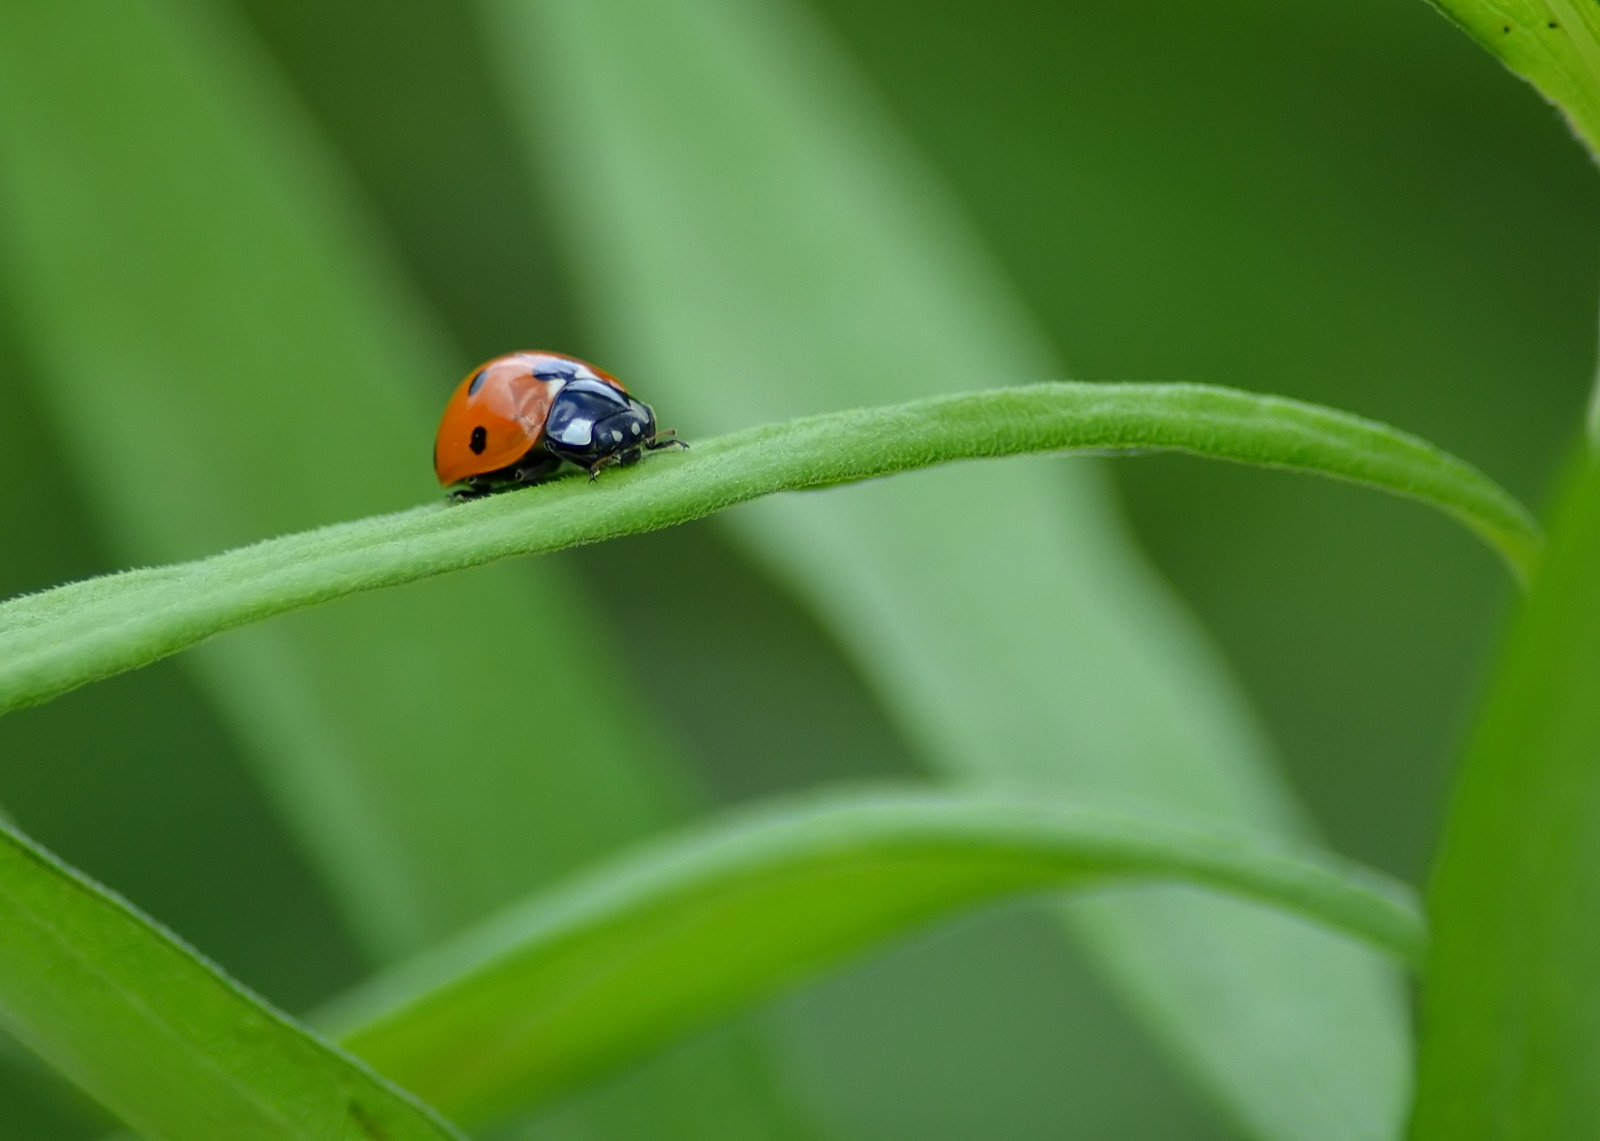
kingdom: Animalia
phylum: Arthropoda
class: Insecta
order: Coleoptera
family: Coccinellidae
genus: Coccinella
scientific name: Coccinella septempunctata
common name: Sevenspotted lady beetle
